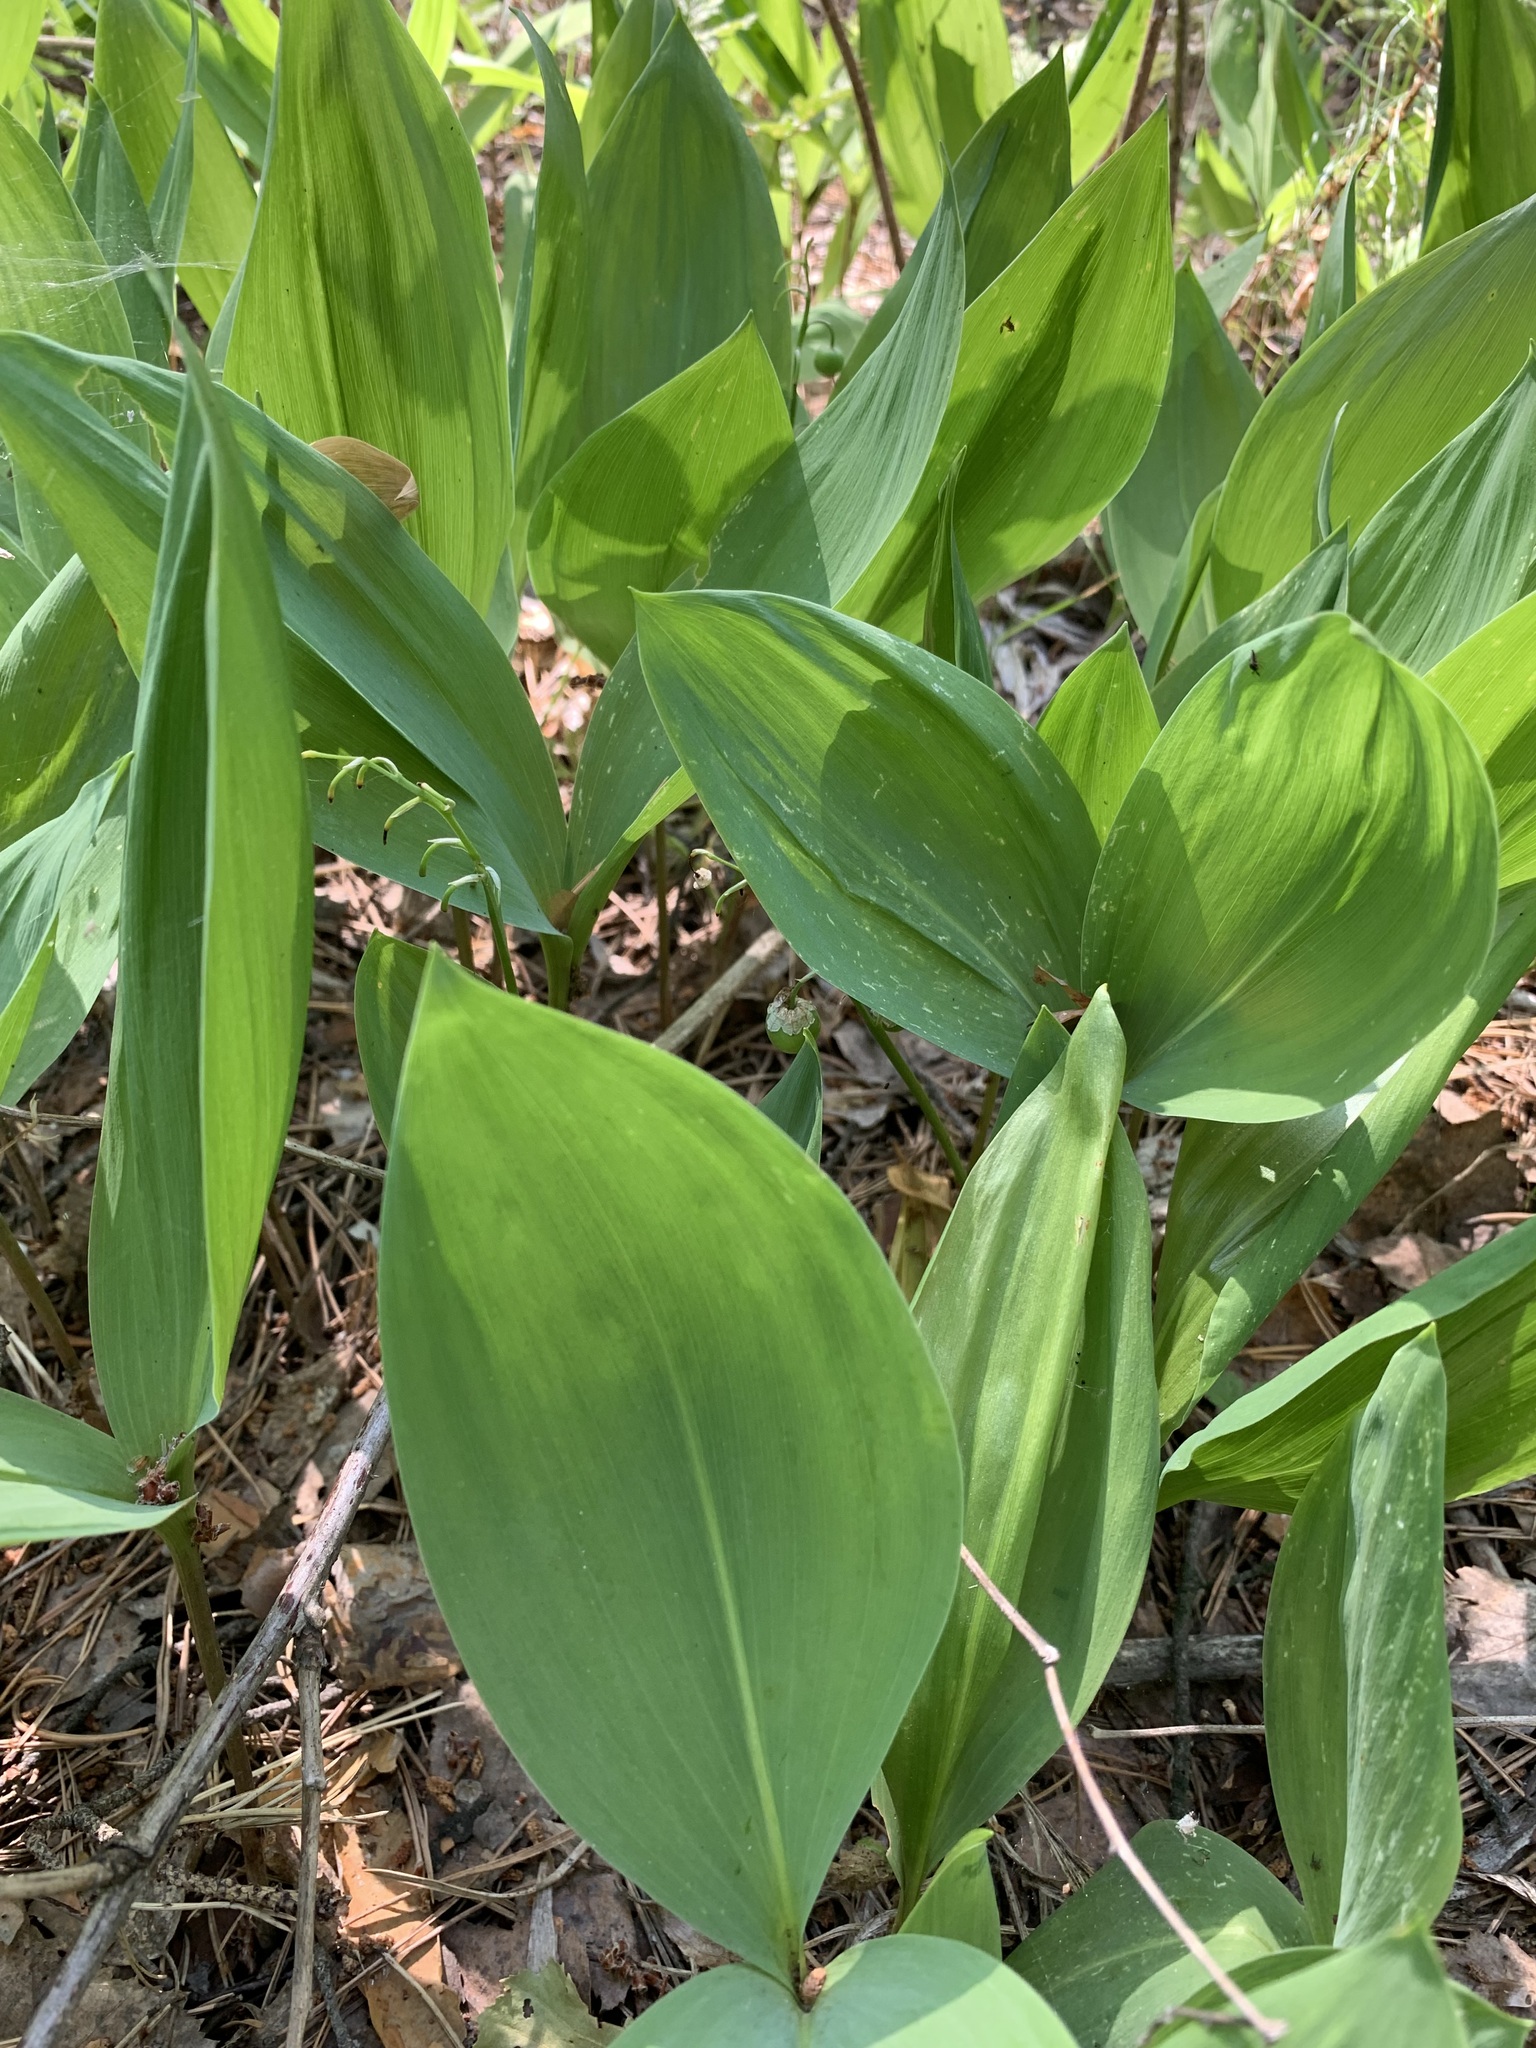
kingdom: Plantae
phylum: Tracheophyta
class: Liliopsida
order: Asparagales
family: Asparagaceae
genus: Convallaria
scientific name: Convallaria majalis
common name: Lily-of-the-valley
